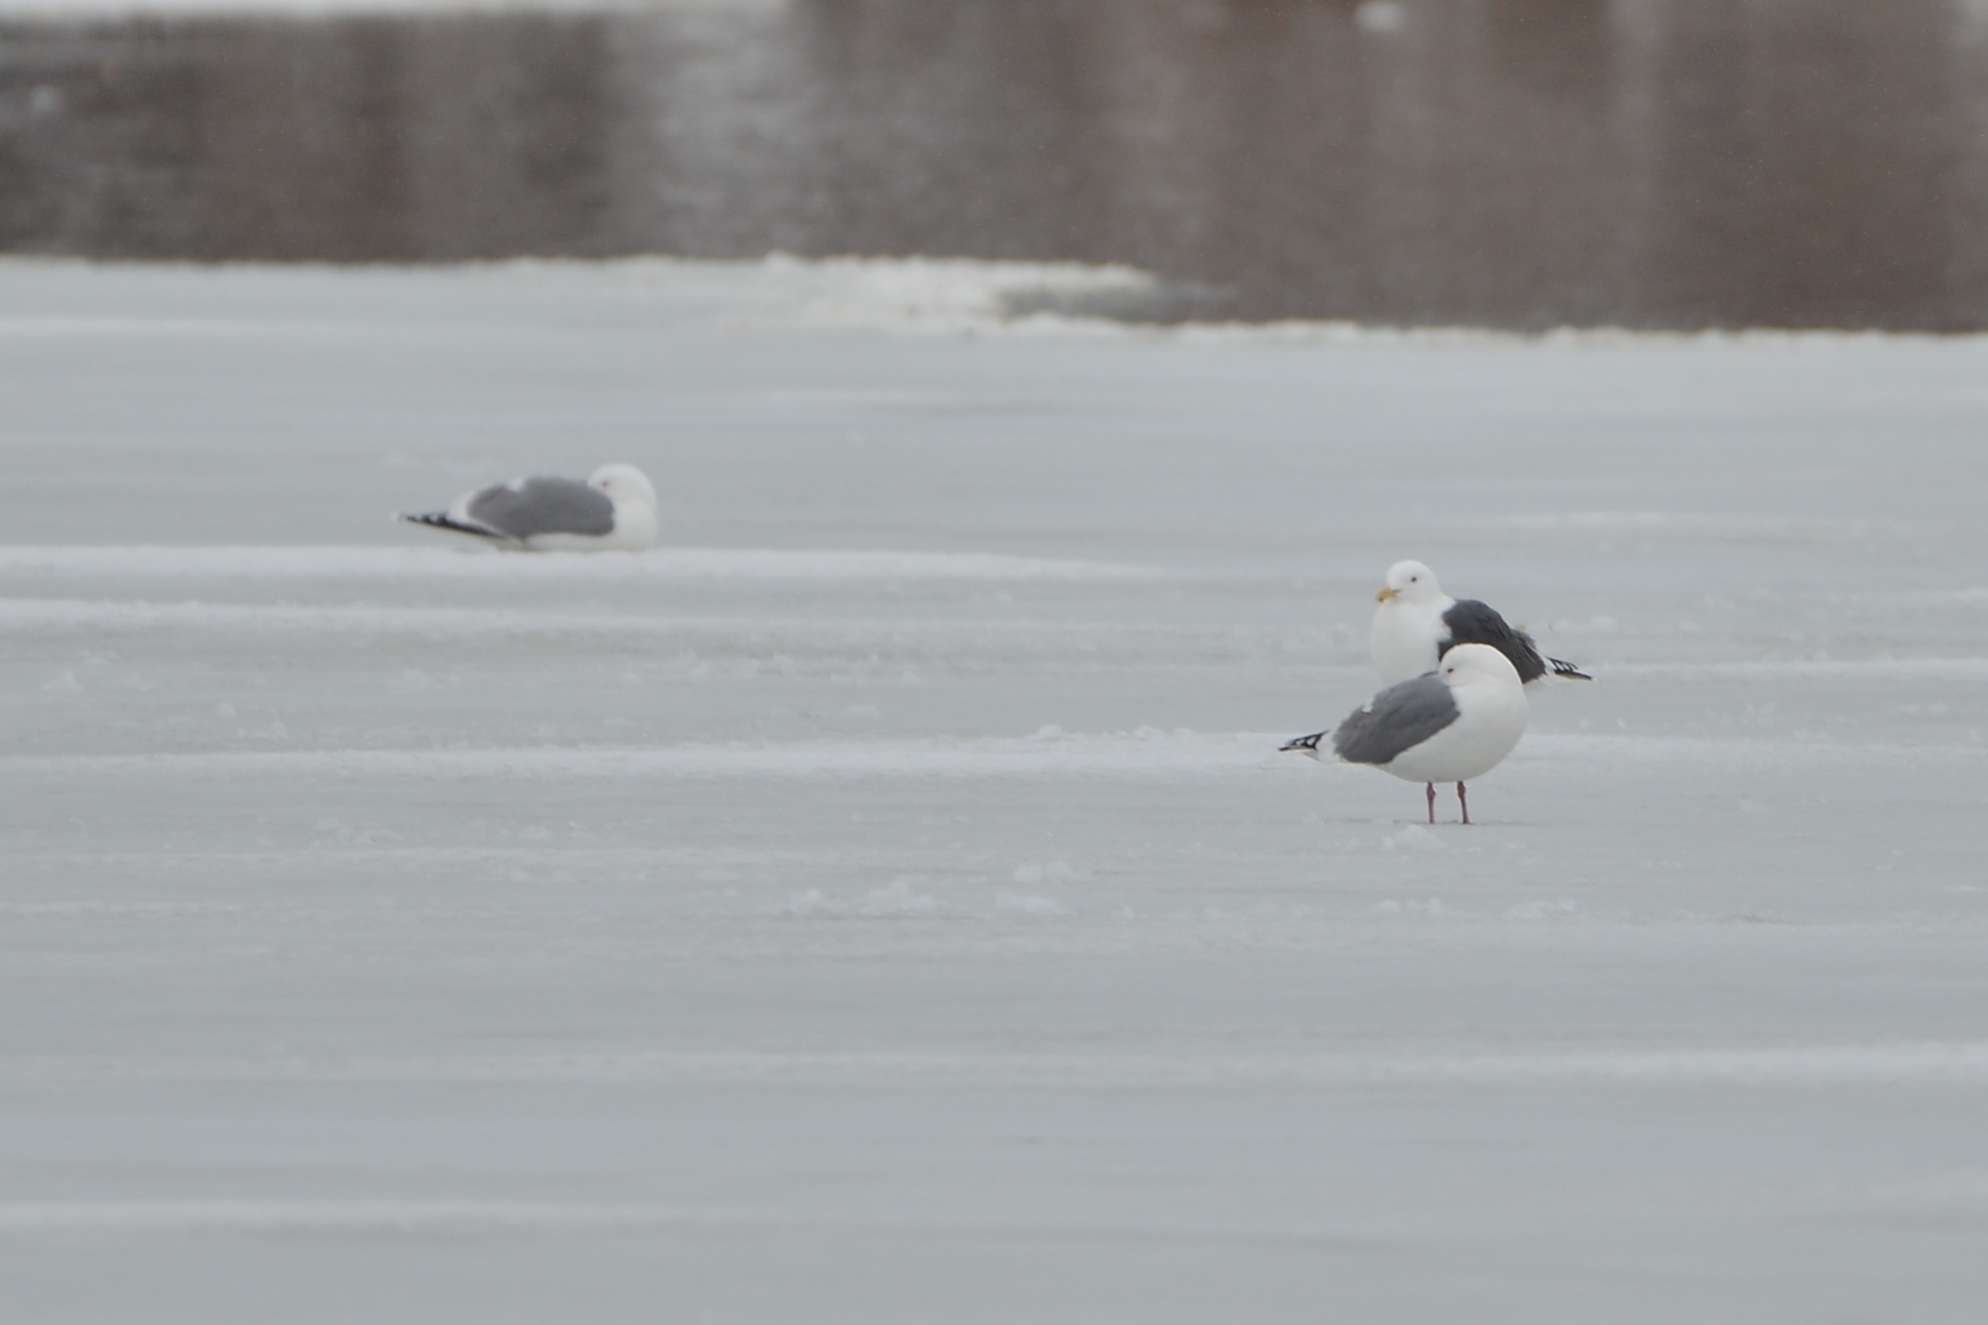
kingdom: Animalia
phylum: Chordata
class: Aves
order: Charadriiformes
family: Laridae
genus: Larus
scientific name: Larus vegae
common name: Vega gull
